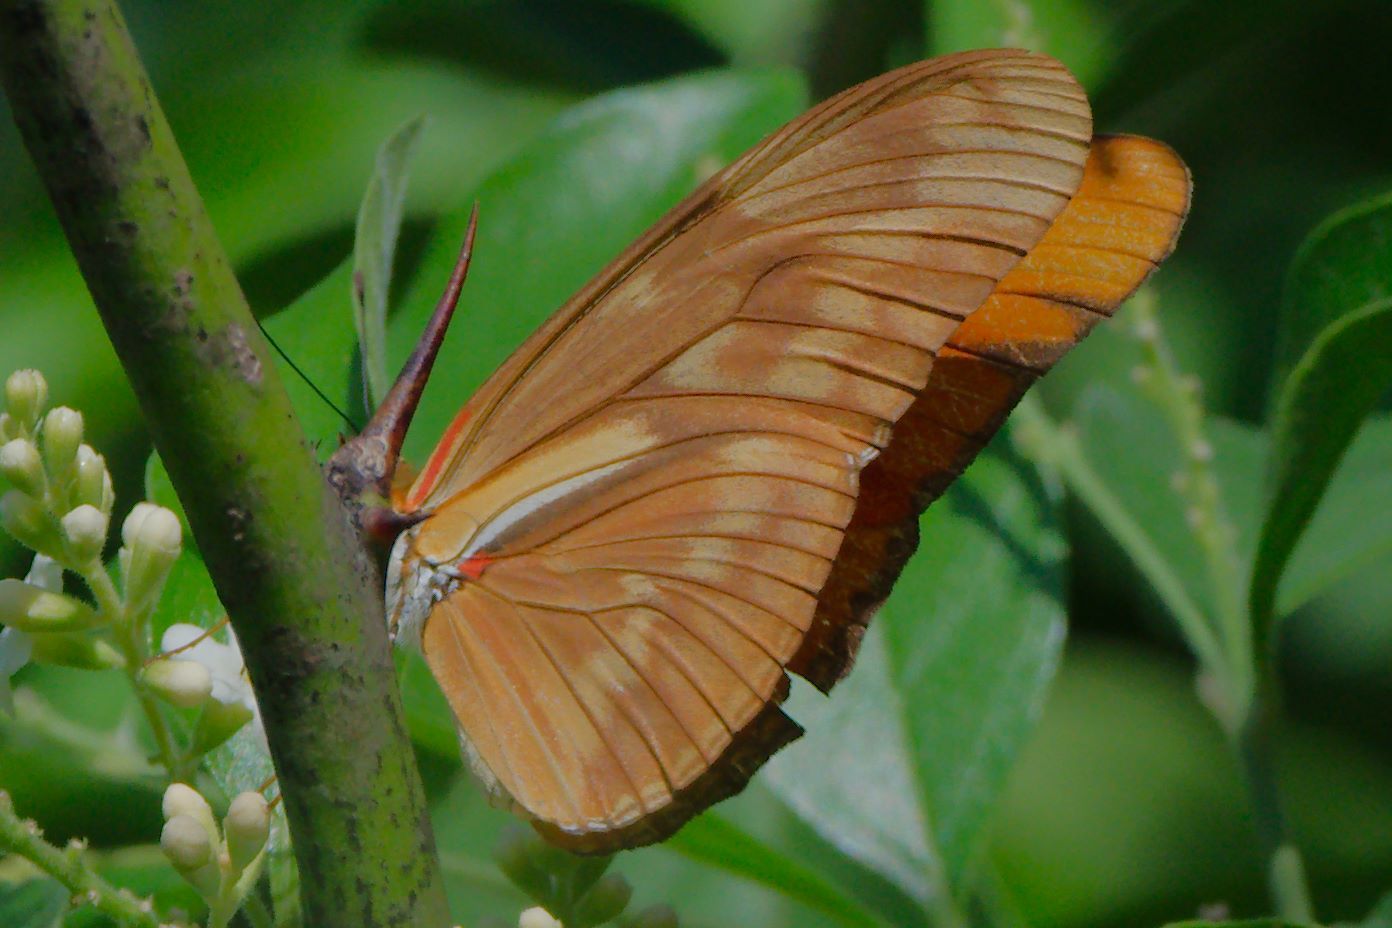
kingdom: Animalia
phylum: Arthropoda
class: Insecta
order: Lepidoptera
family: Nymphalidae
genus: Dryas
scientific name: Dryas iulia
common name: Flambeau
